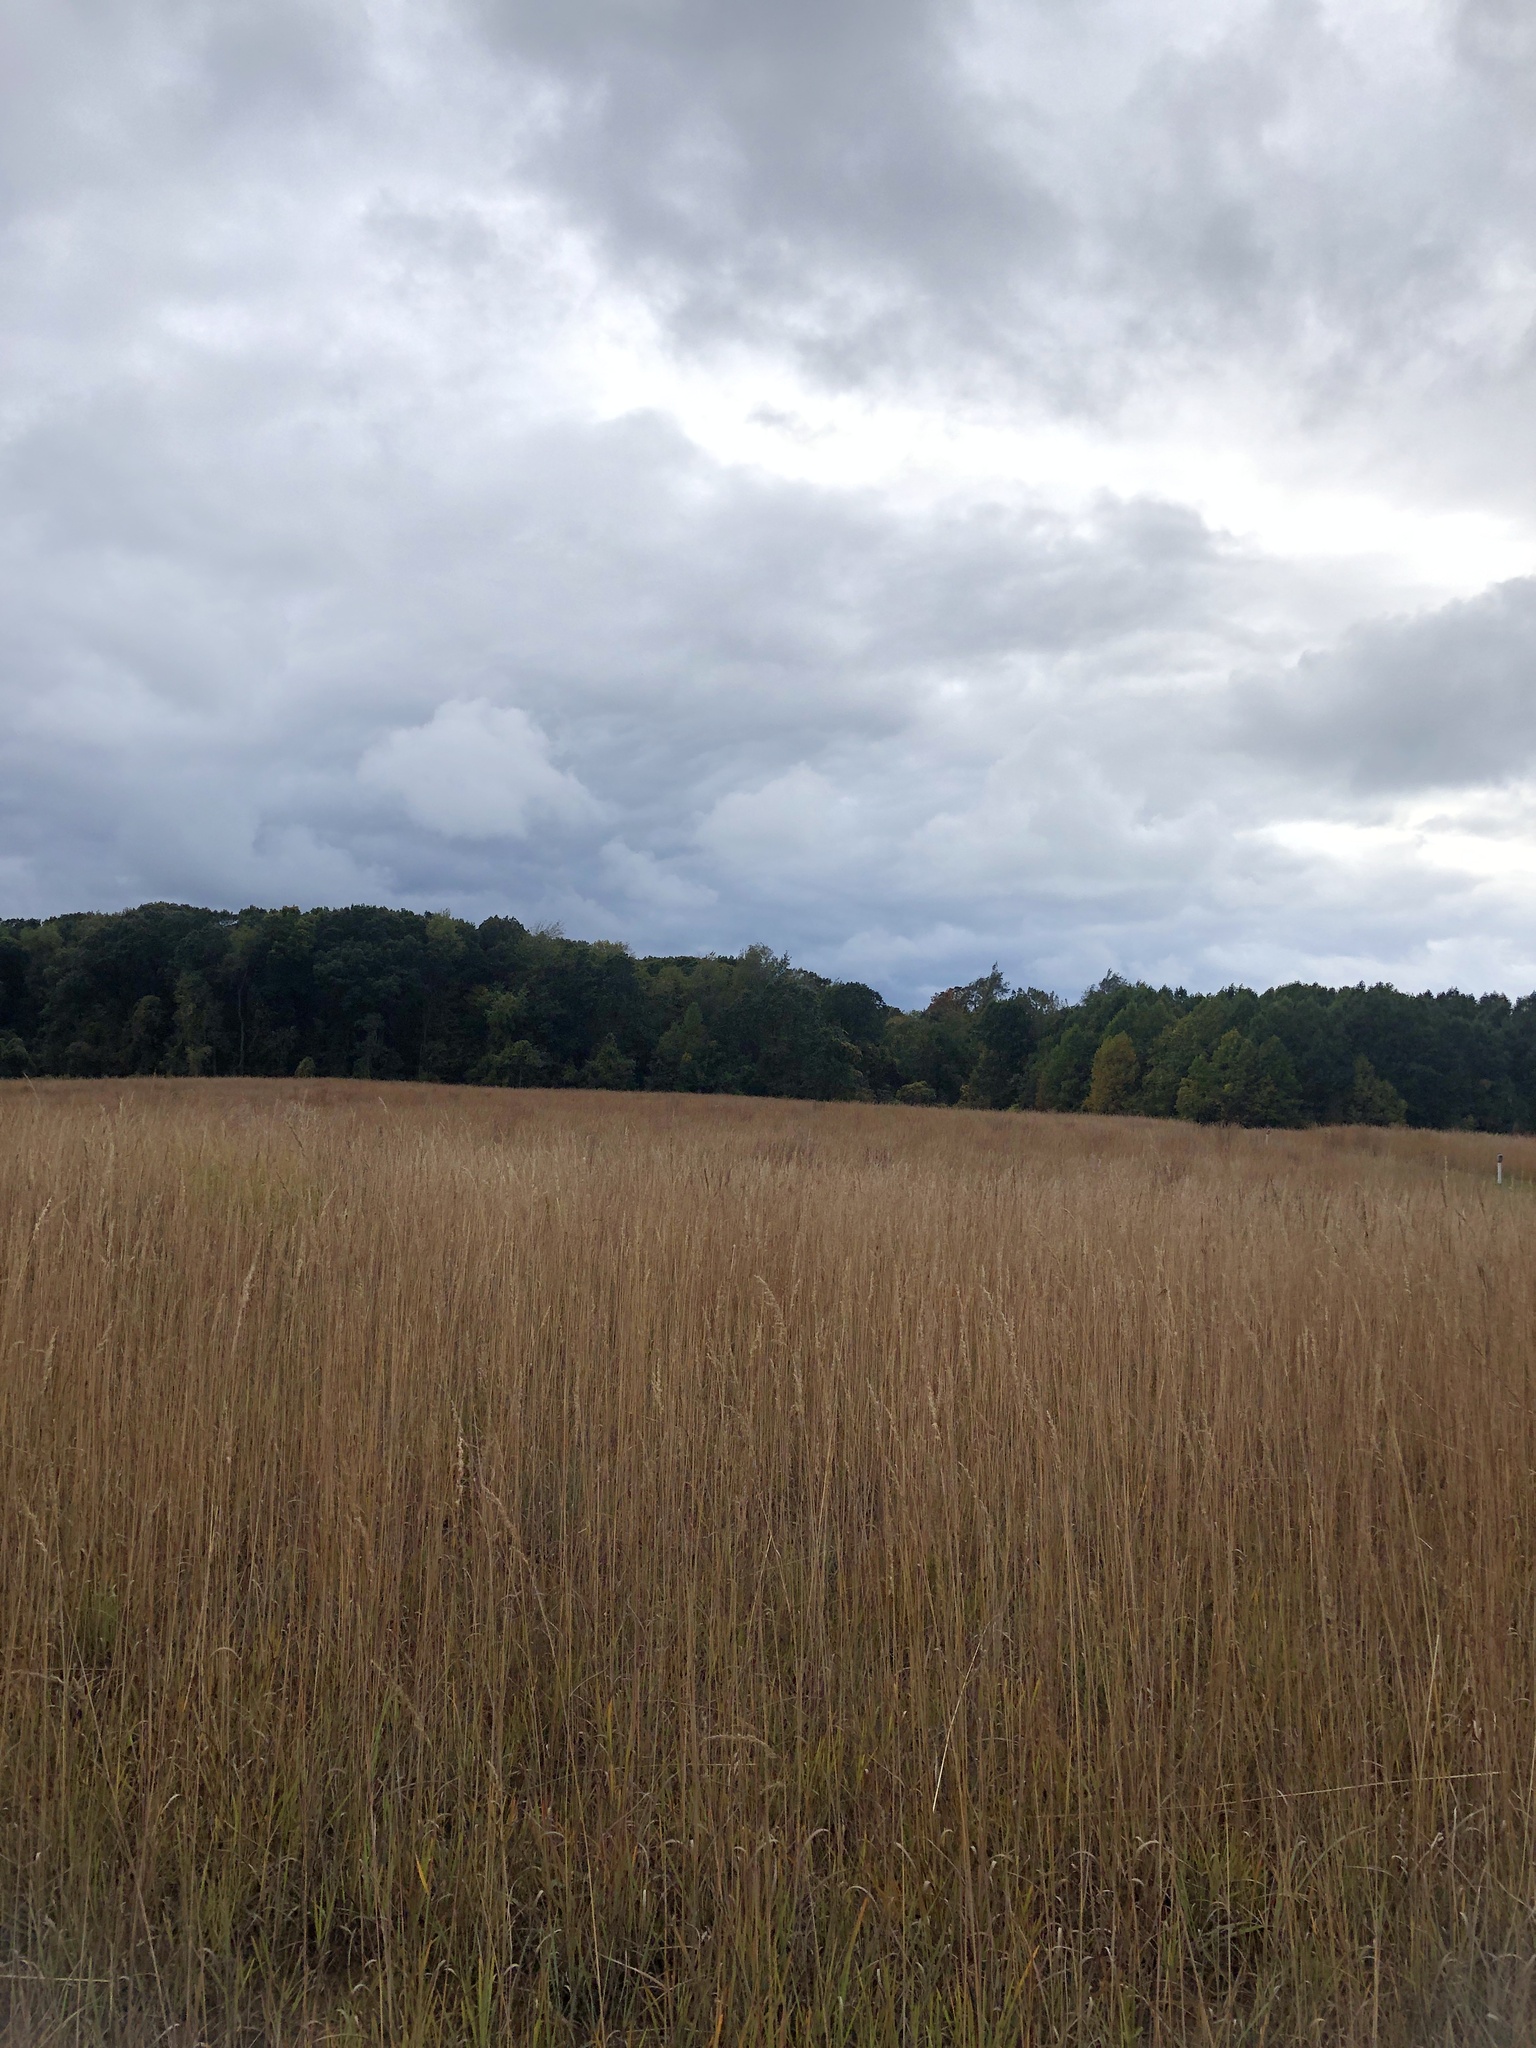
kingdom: Plantae
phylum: Tracheophyta
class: Liliopsida
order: Poales
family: Poaceae
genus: Sorghastrum
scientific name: Sorghastrum nutans
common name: Indian grass
